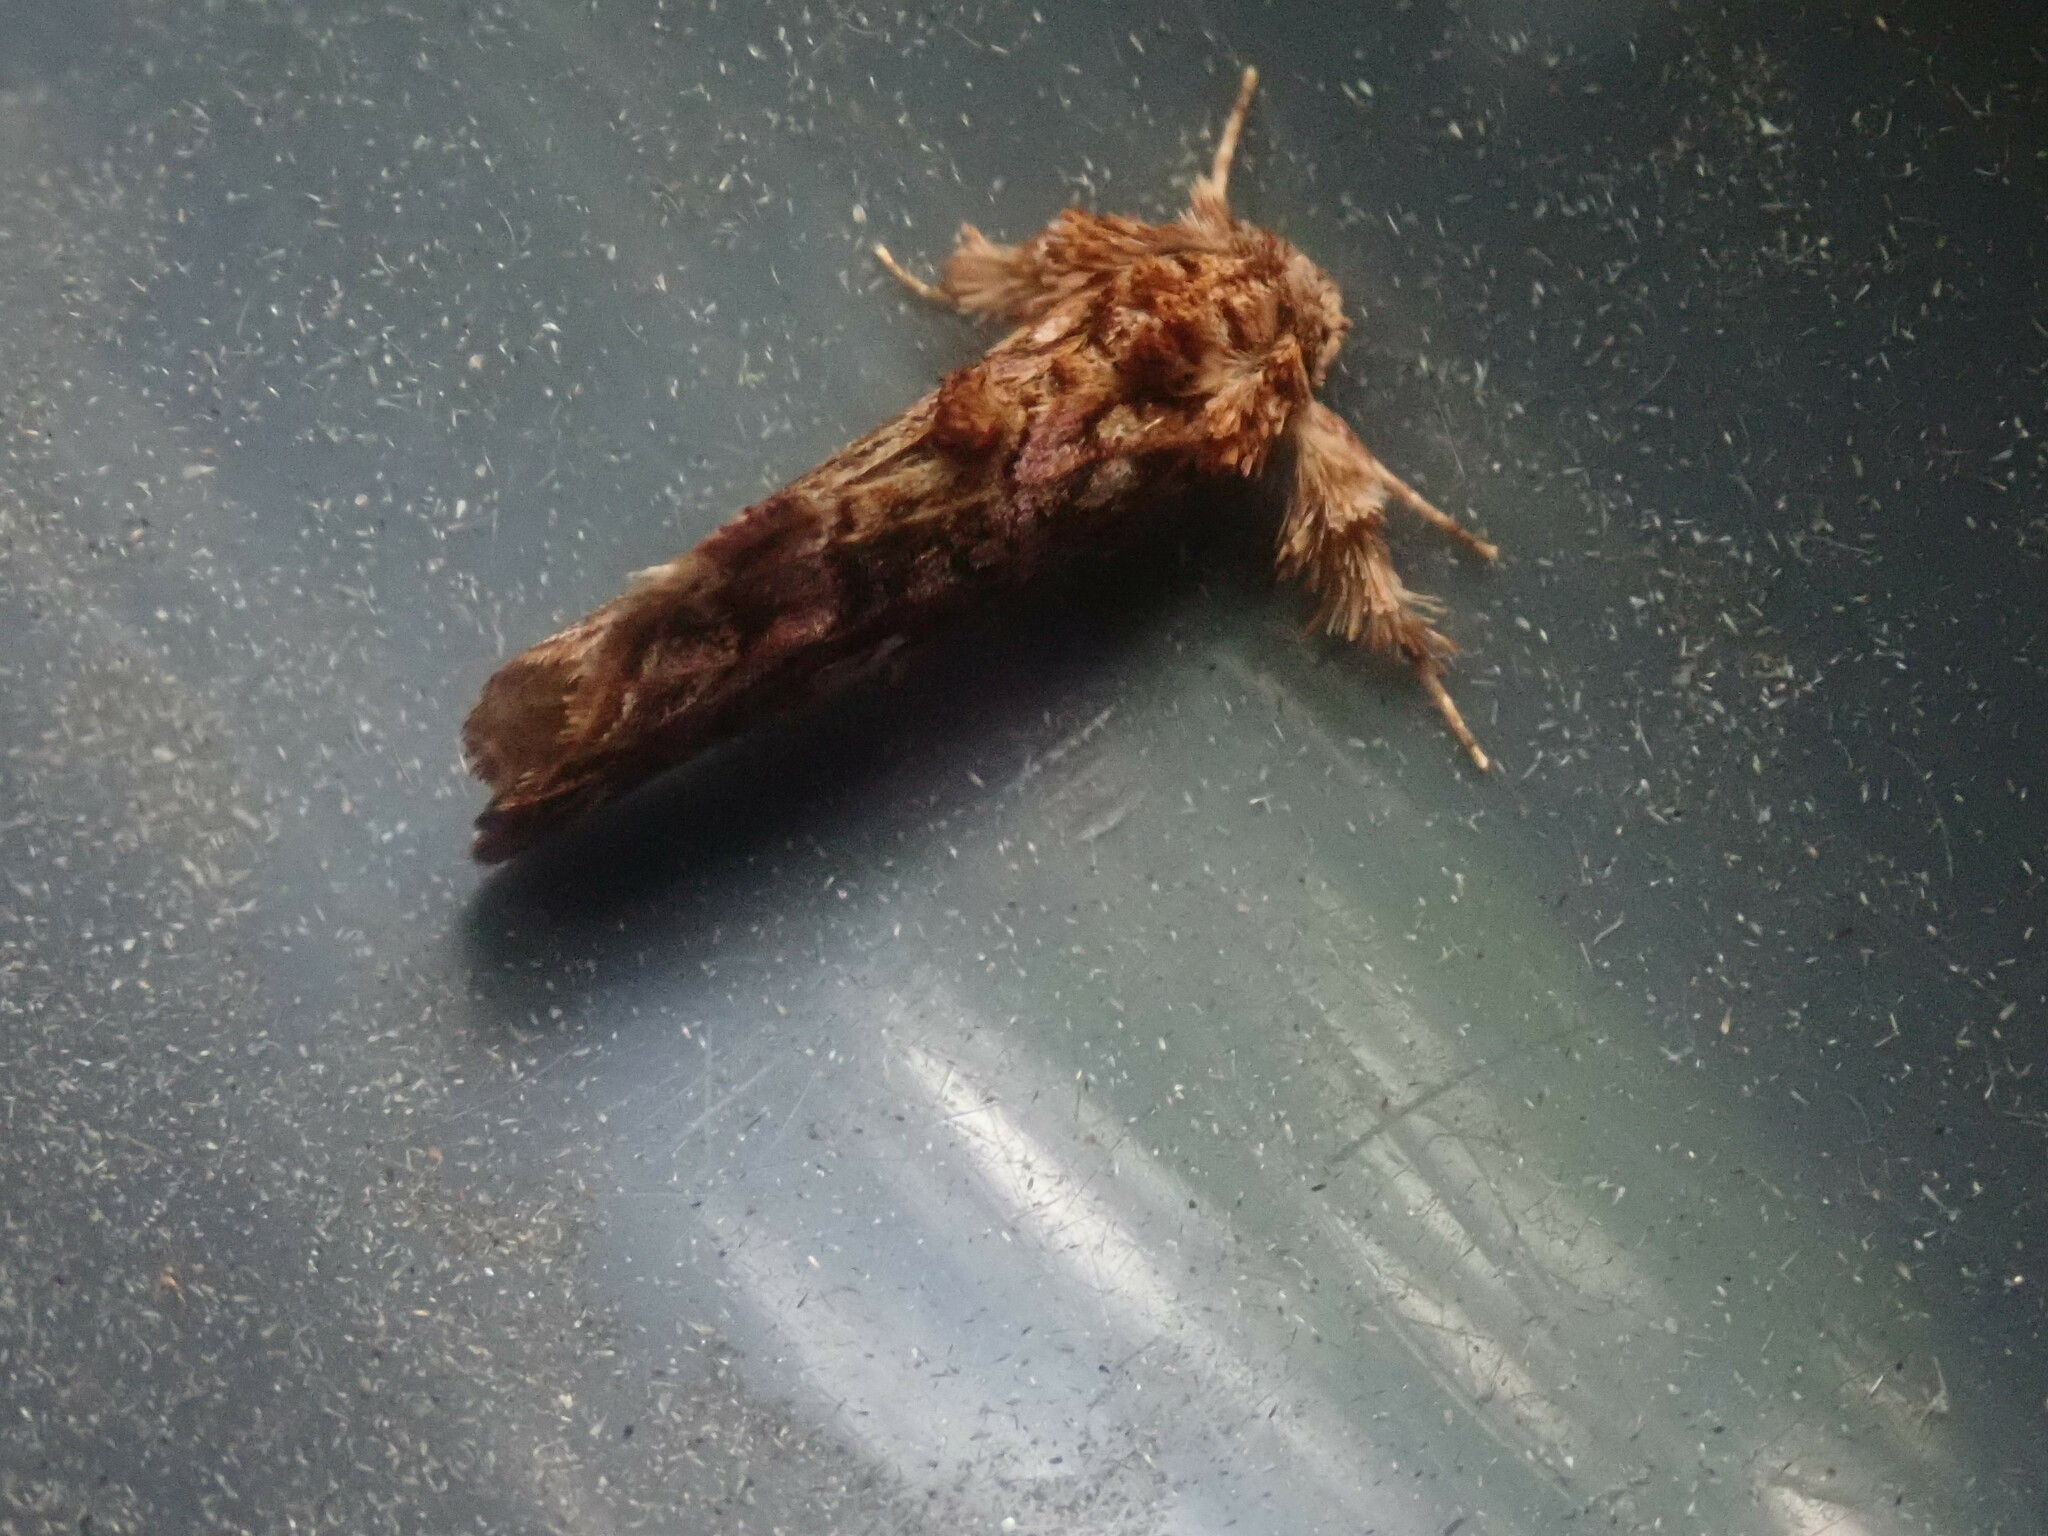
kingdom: Animalia
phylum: Arthropoda
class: Insecta
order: Lepidoptera
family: Noctuidae
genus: Callopistria
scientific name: Callopistria mollissima
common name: Pink-shaded fern moth
